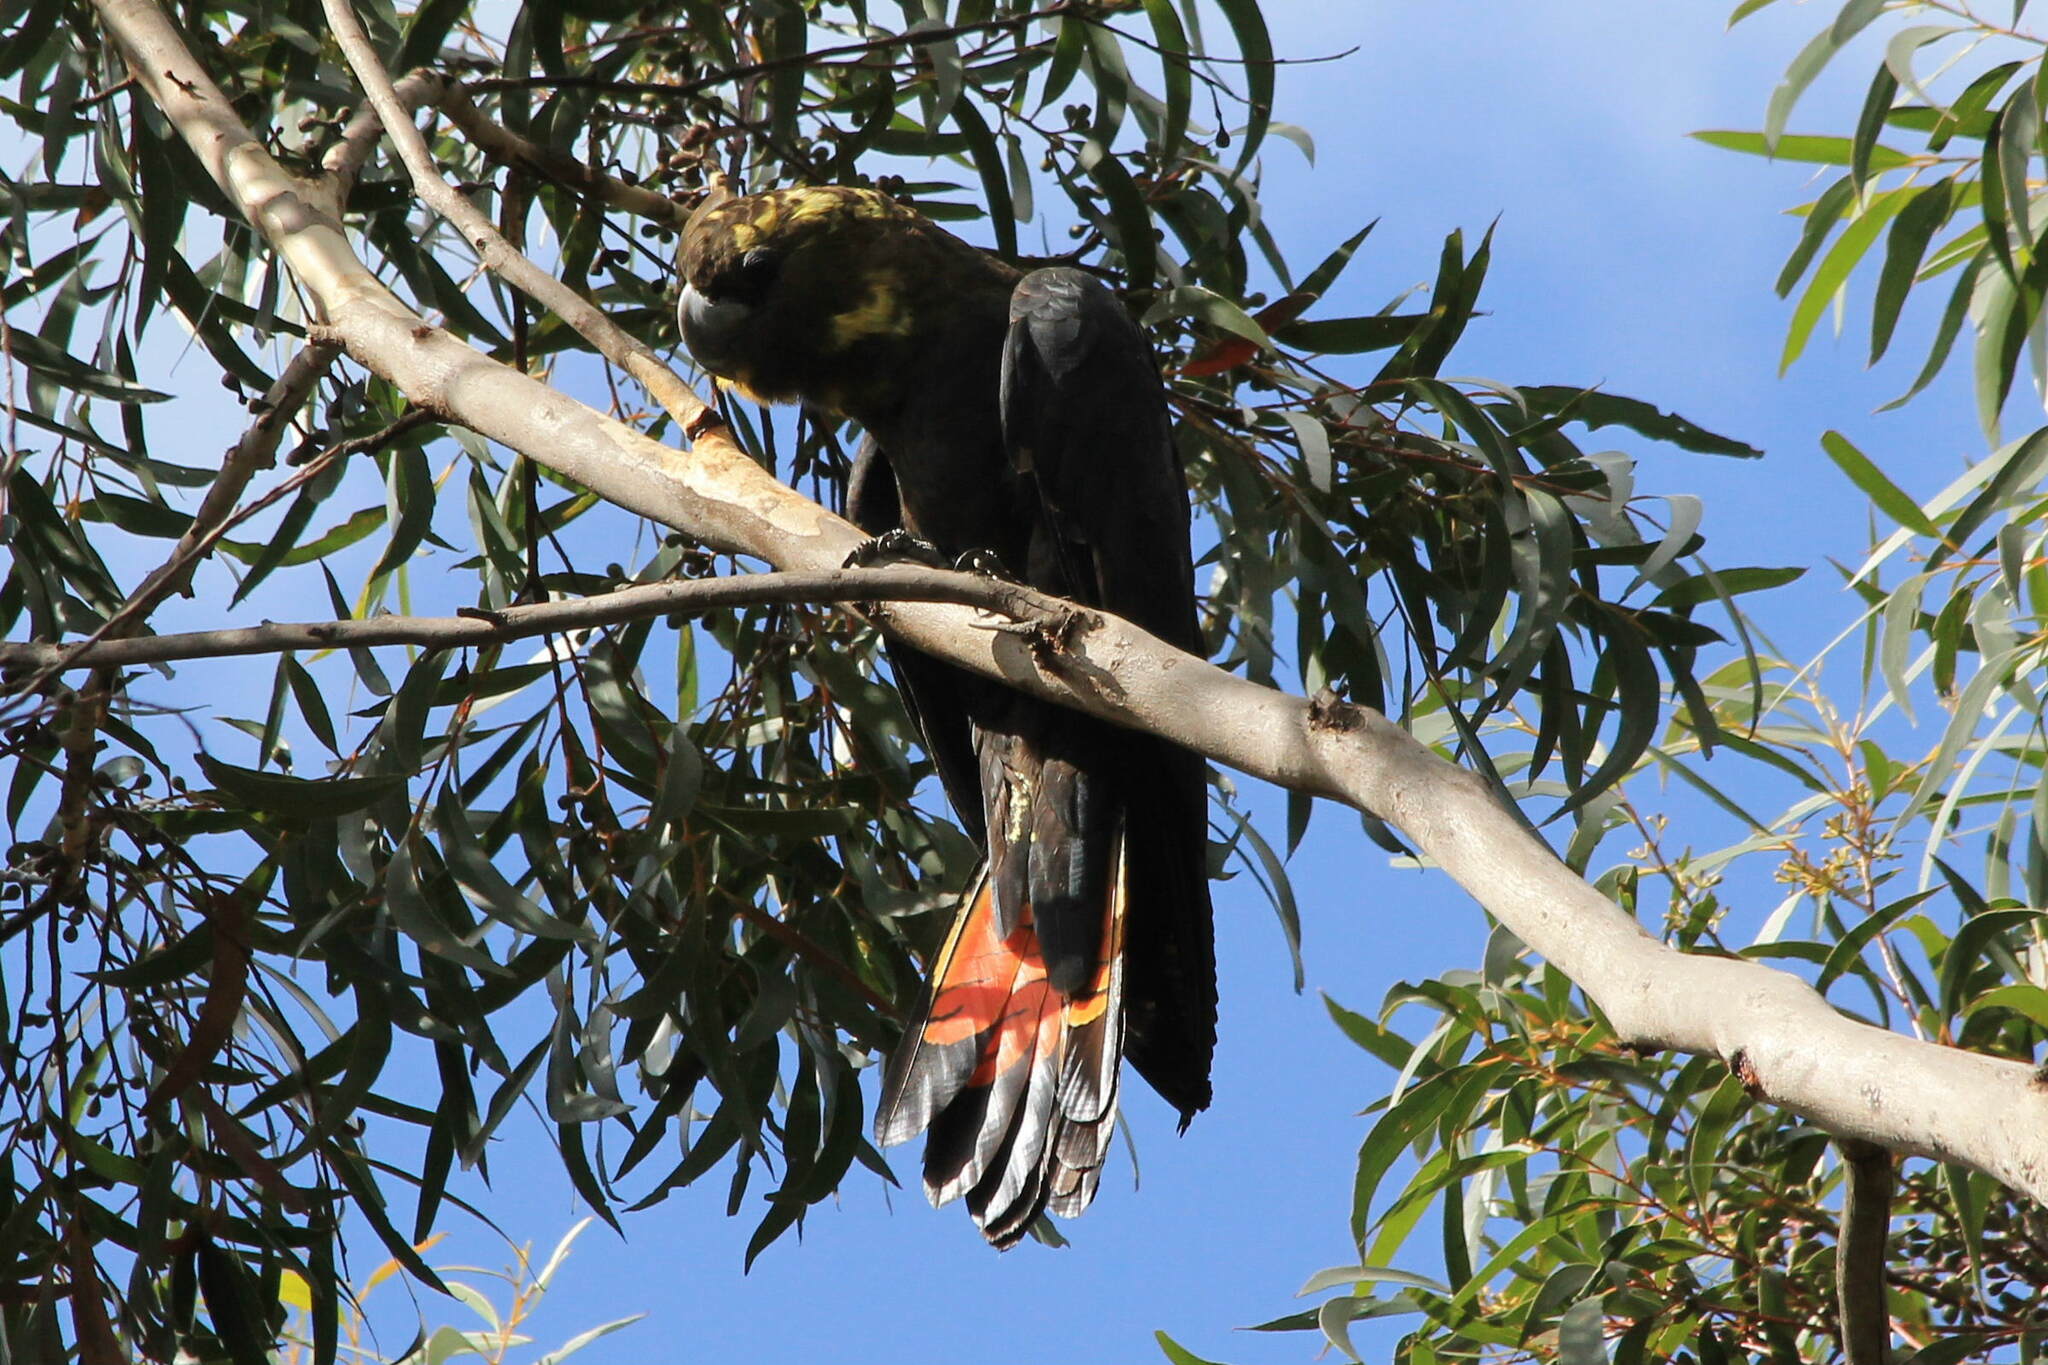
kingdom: Animalia
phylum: Chordata
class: Aves
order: Psittaciformes
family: Psittacidae
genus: Calyptorhynchus
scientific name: Calyptorhynchus lathami
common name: Glossy black cockatoo
